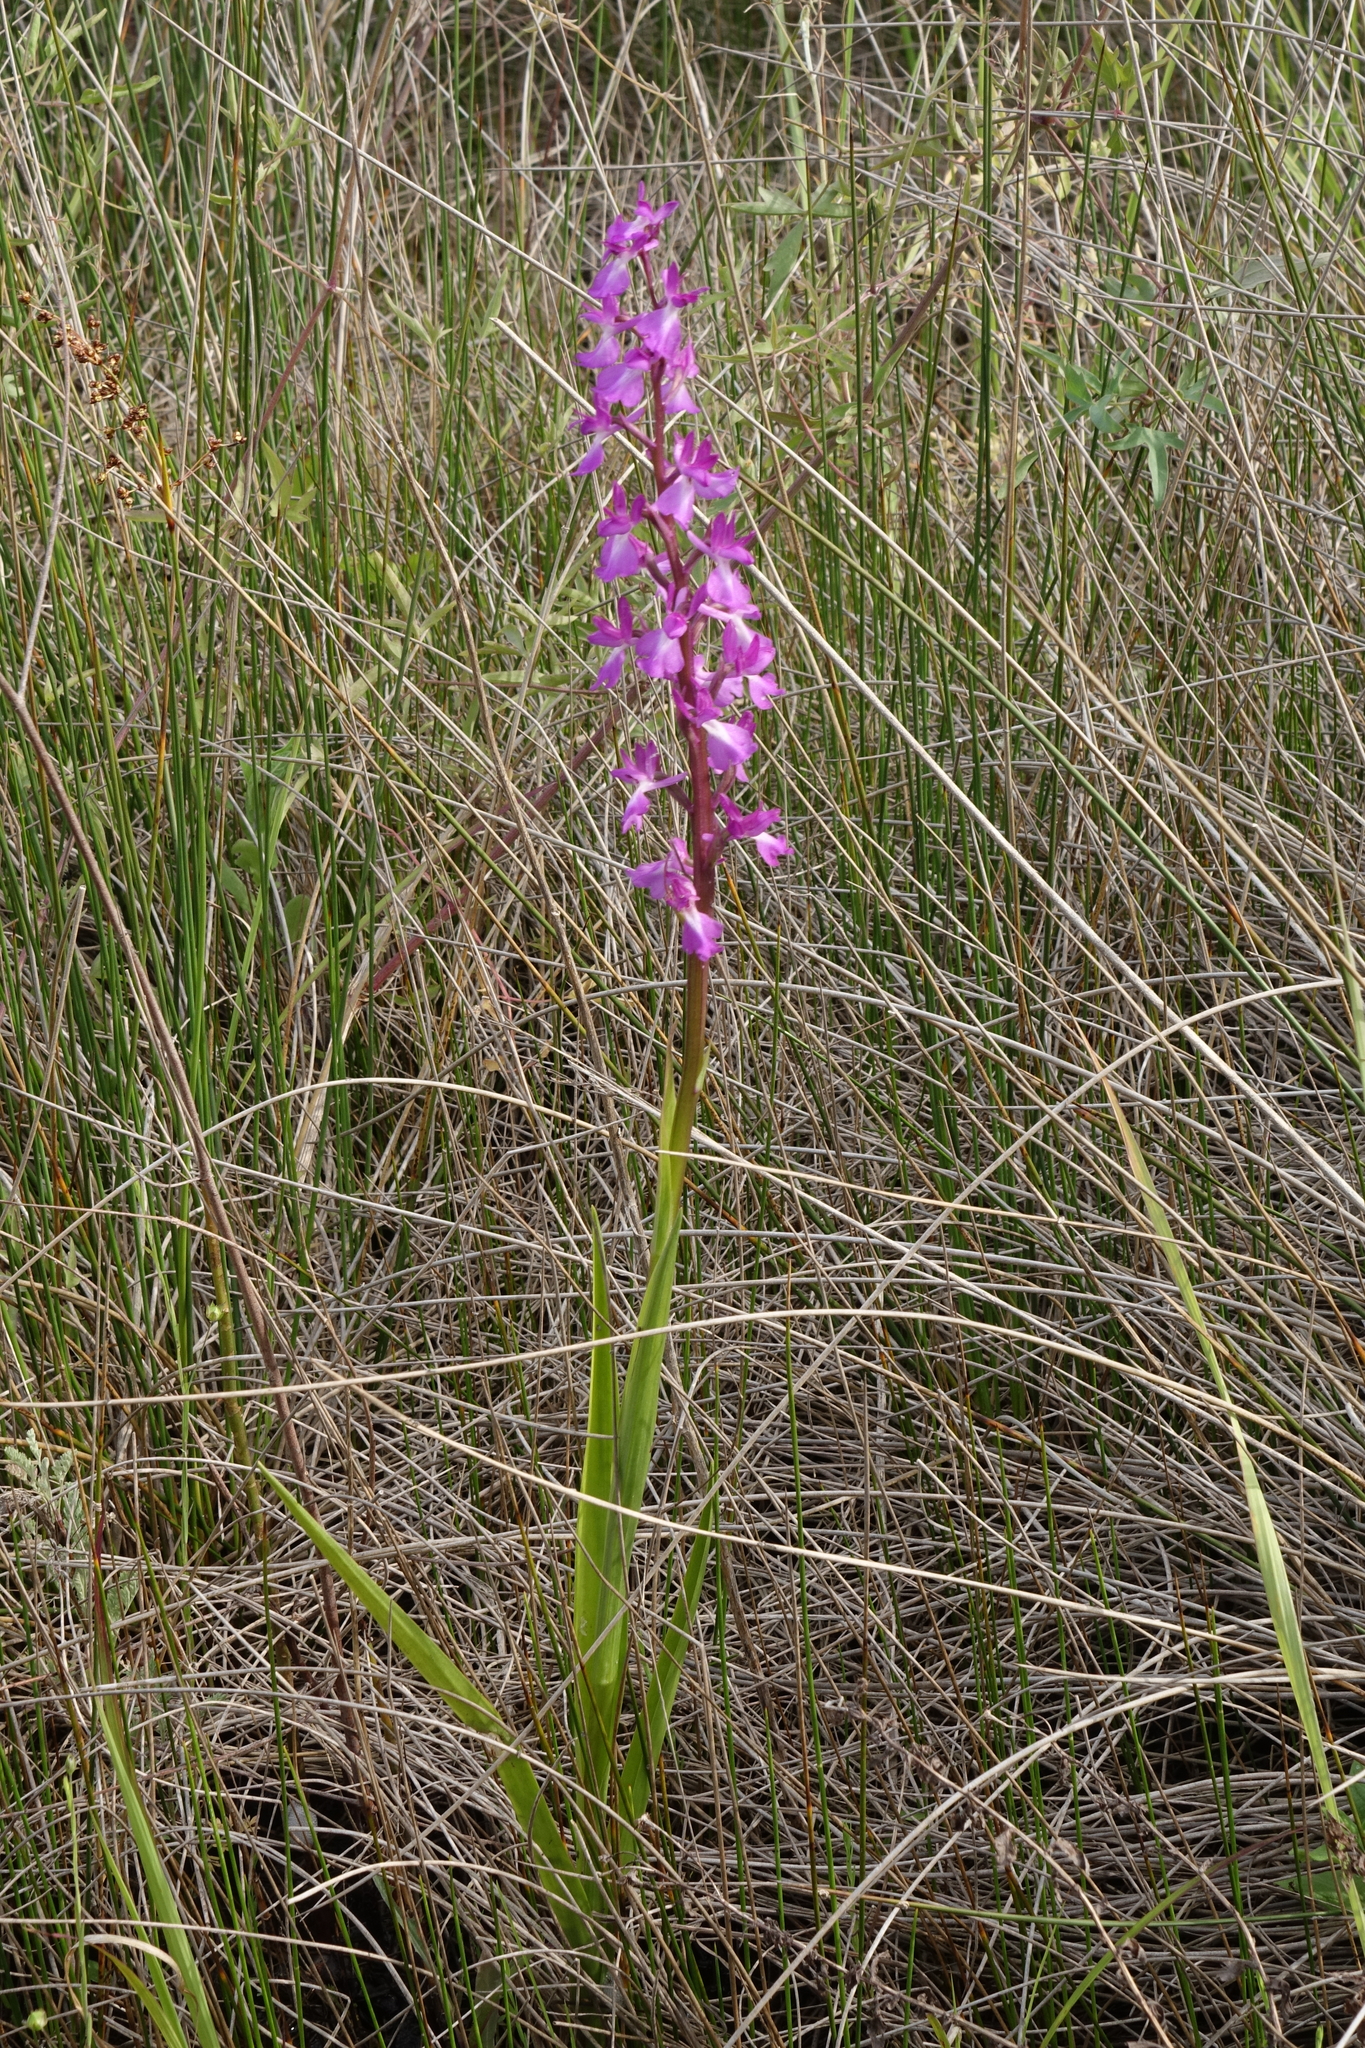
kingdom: Plantae
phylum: Tracheophyta
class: Liliopsida
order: Asparagales
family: Orchidaceae
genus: Anacamptis
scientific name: Anacamptis palustris
